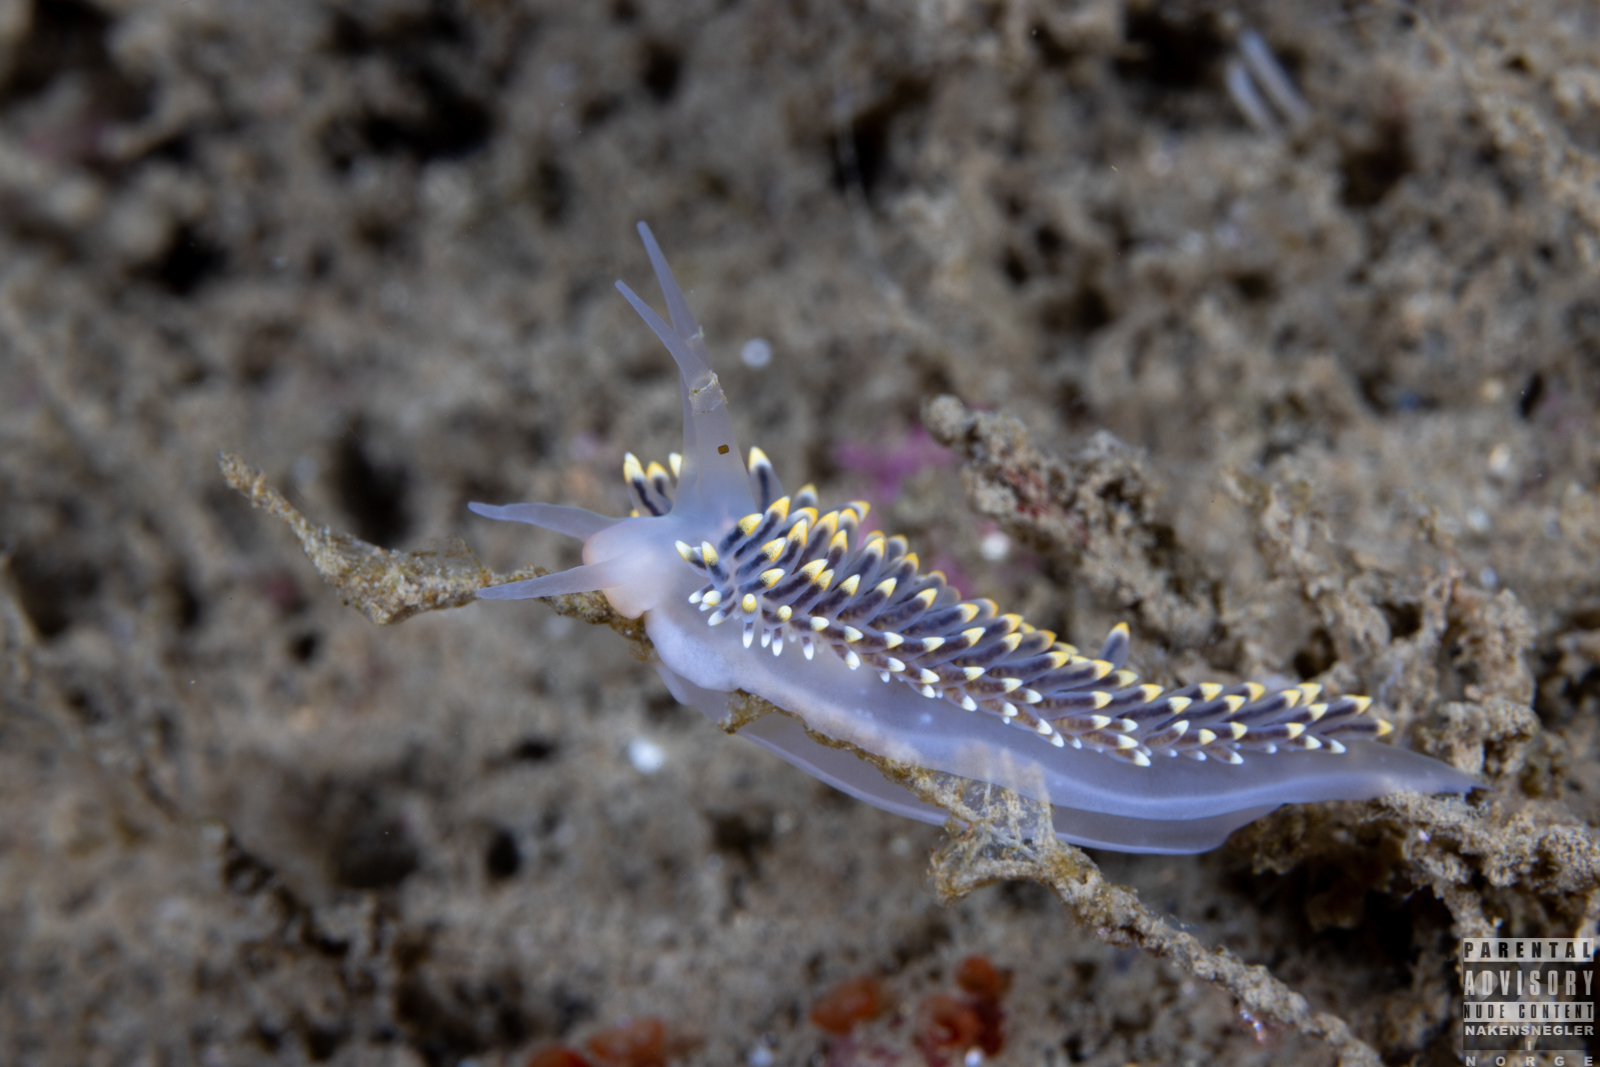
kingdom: Animalia
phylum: Mollusca
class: Gastropoda
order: Nudibranchia
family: Eubranchidae
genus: Eubranchus
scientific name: Eubranchus tricolor
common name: Painted balloon aeolis
